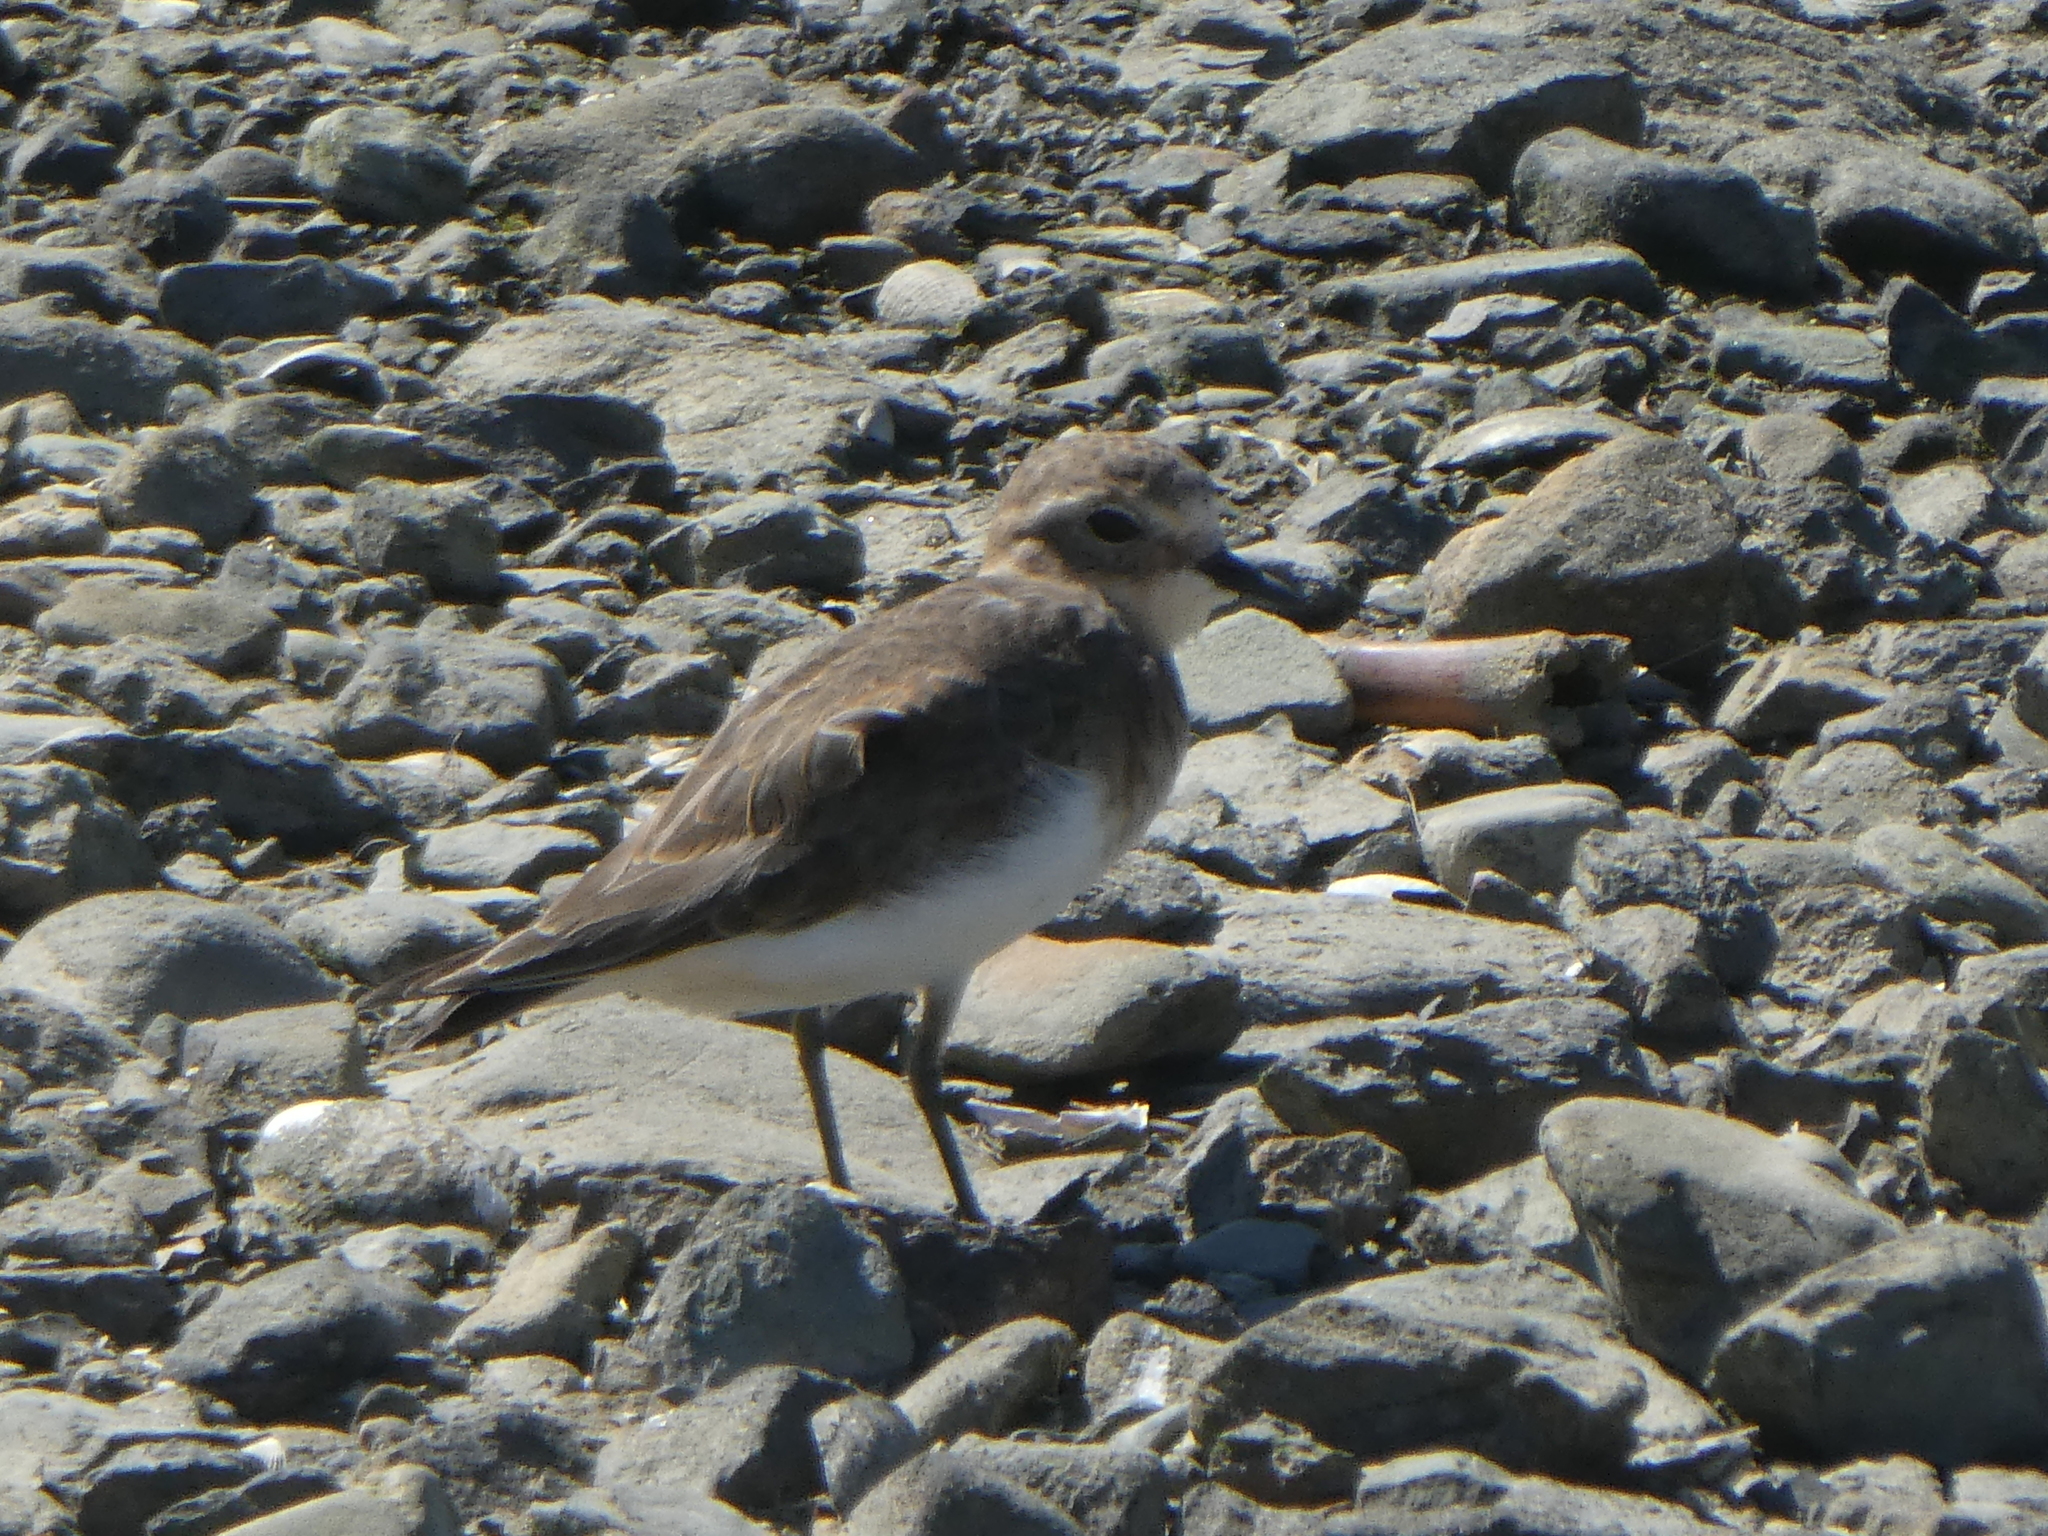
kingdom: Animalia
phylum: Chordata
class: Aves
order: Charadriiformes
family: Charadriidae
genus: Anarhynchus
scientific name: Anarhynchus
